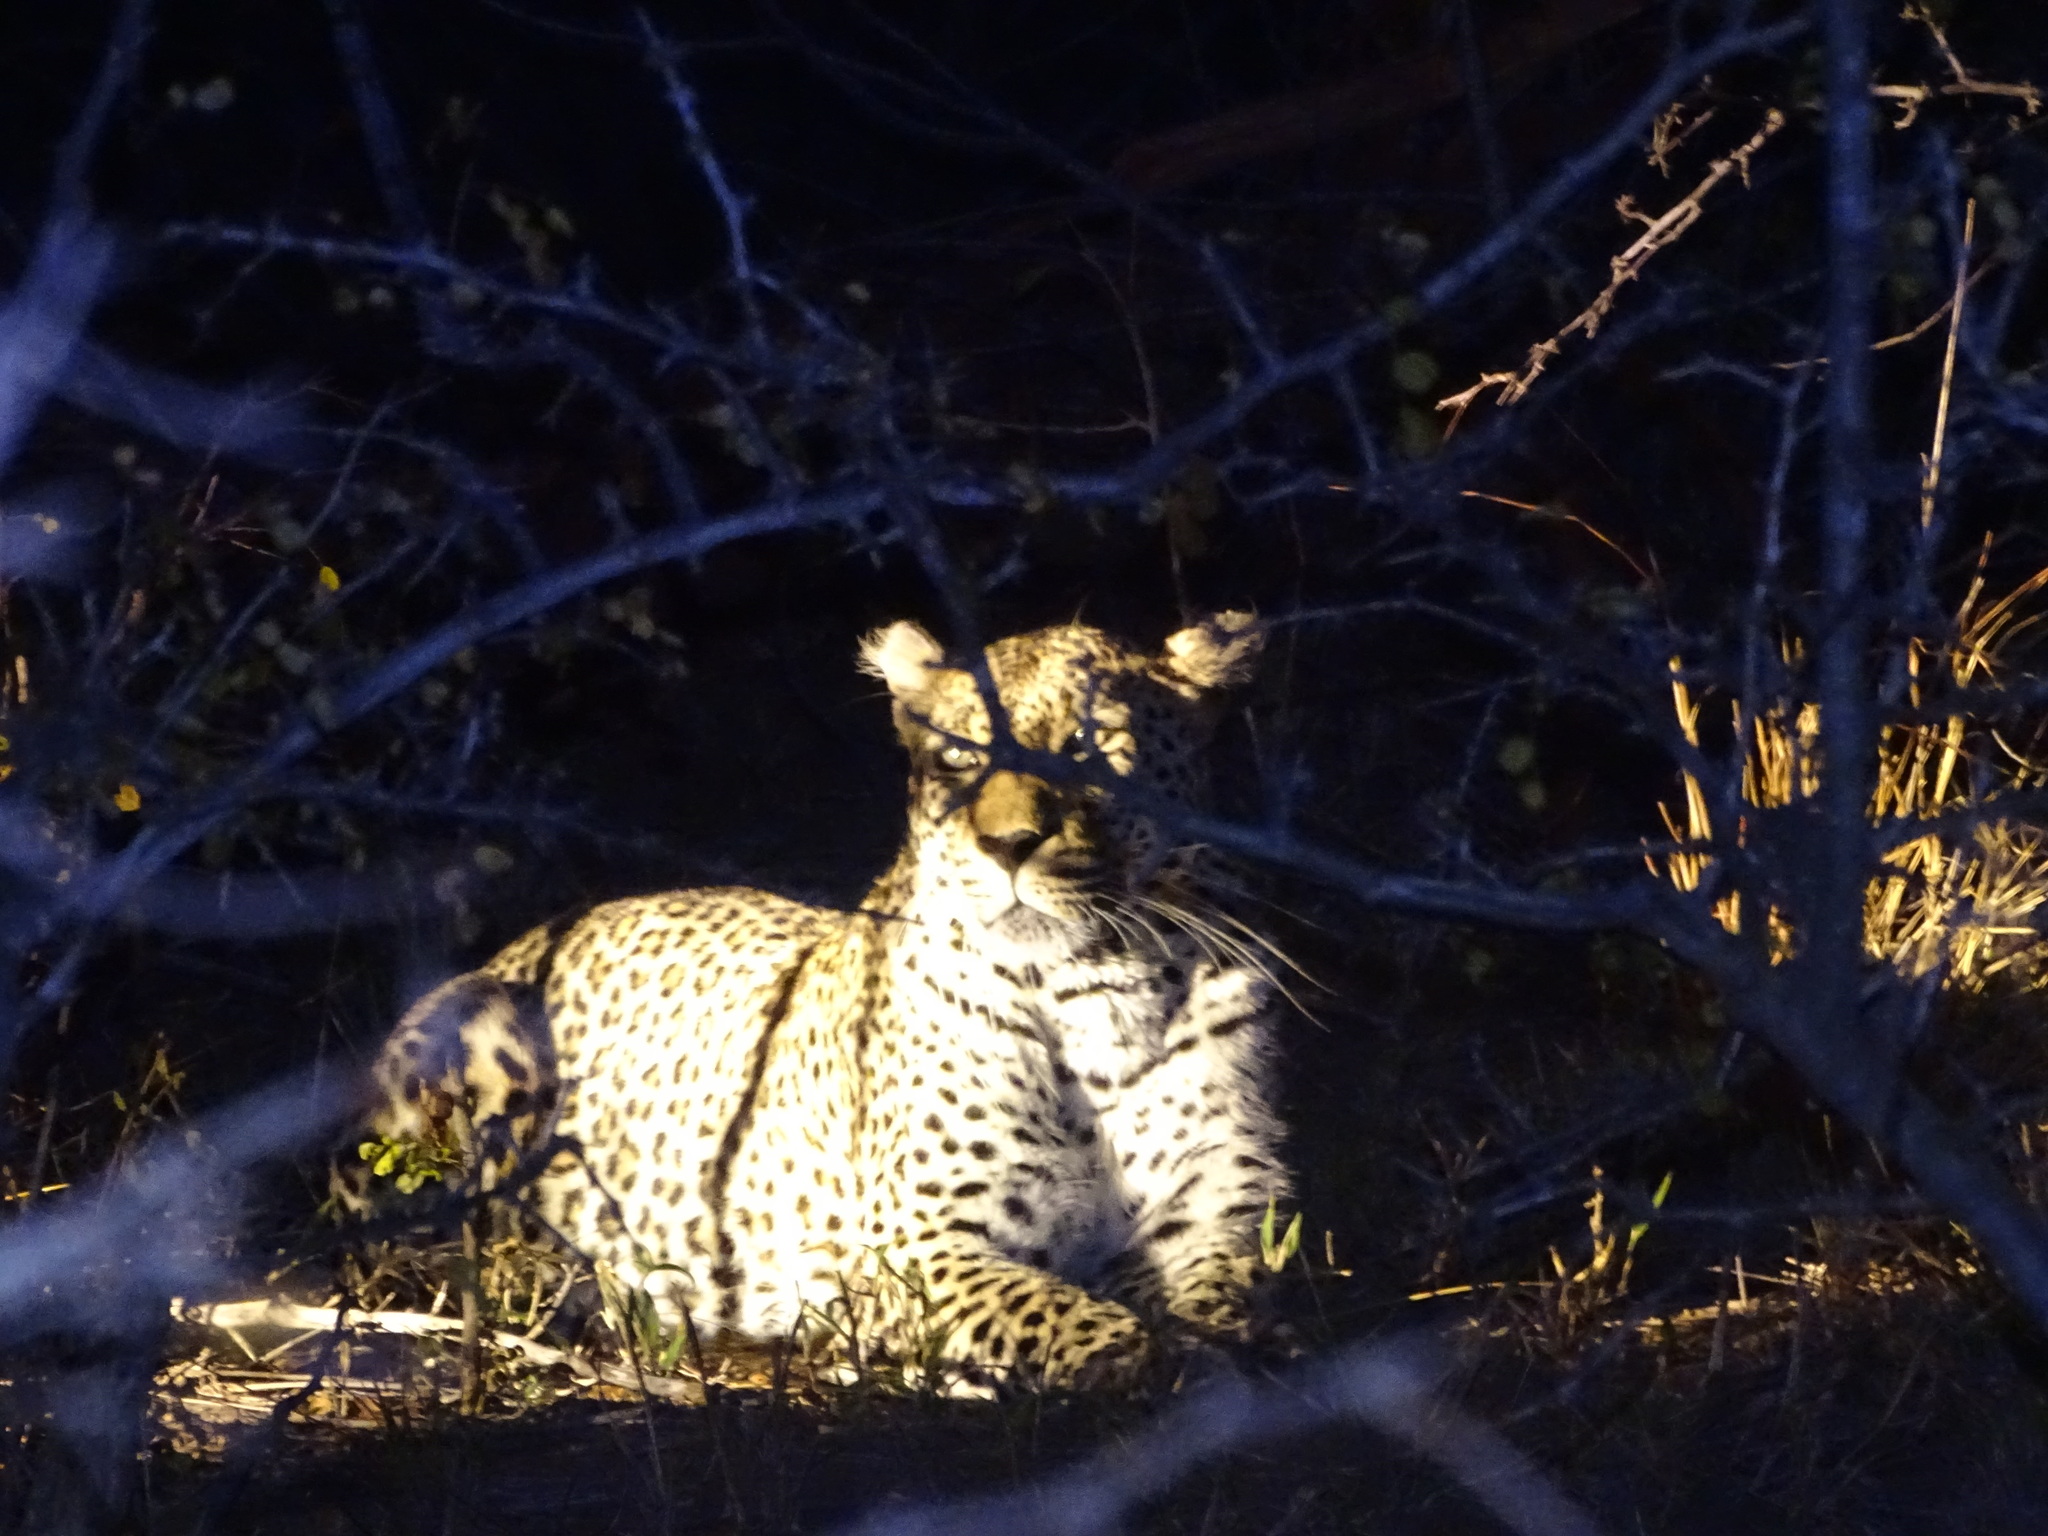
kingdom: Animalia
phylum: Chordata
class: Mammalia
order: Carnivora
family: Felidae
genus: Panthera
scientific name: Panthera pardus
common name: Leopard
